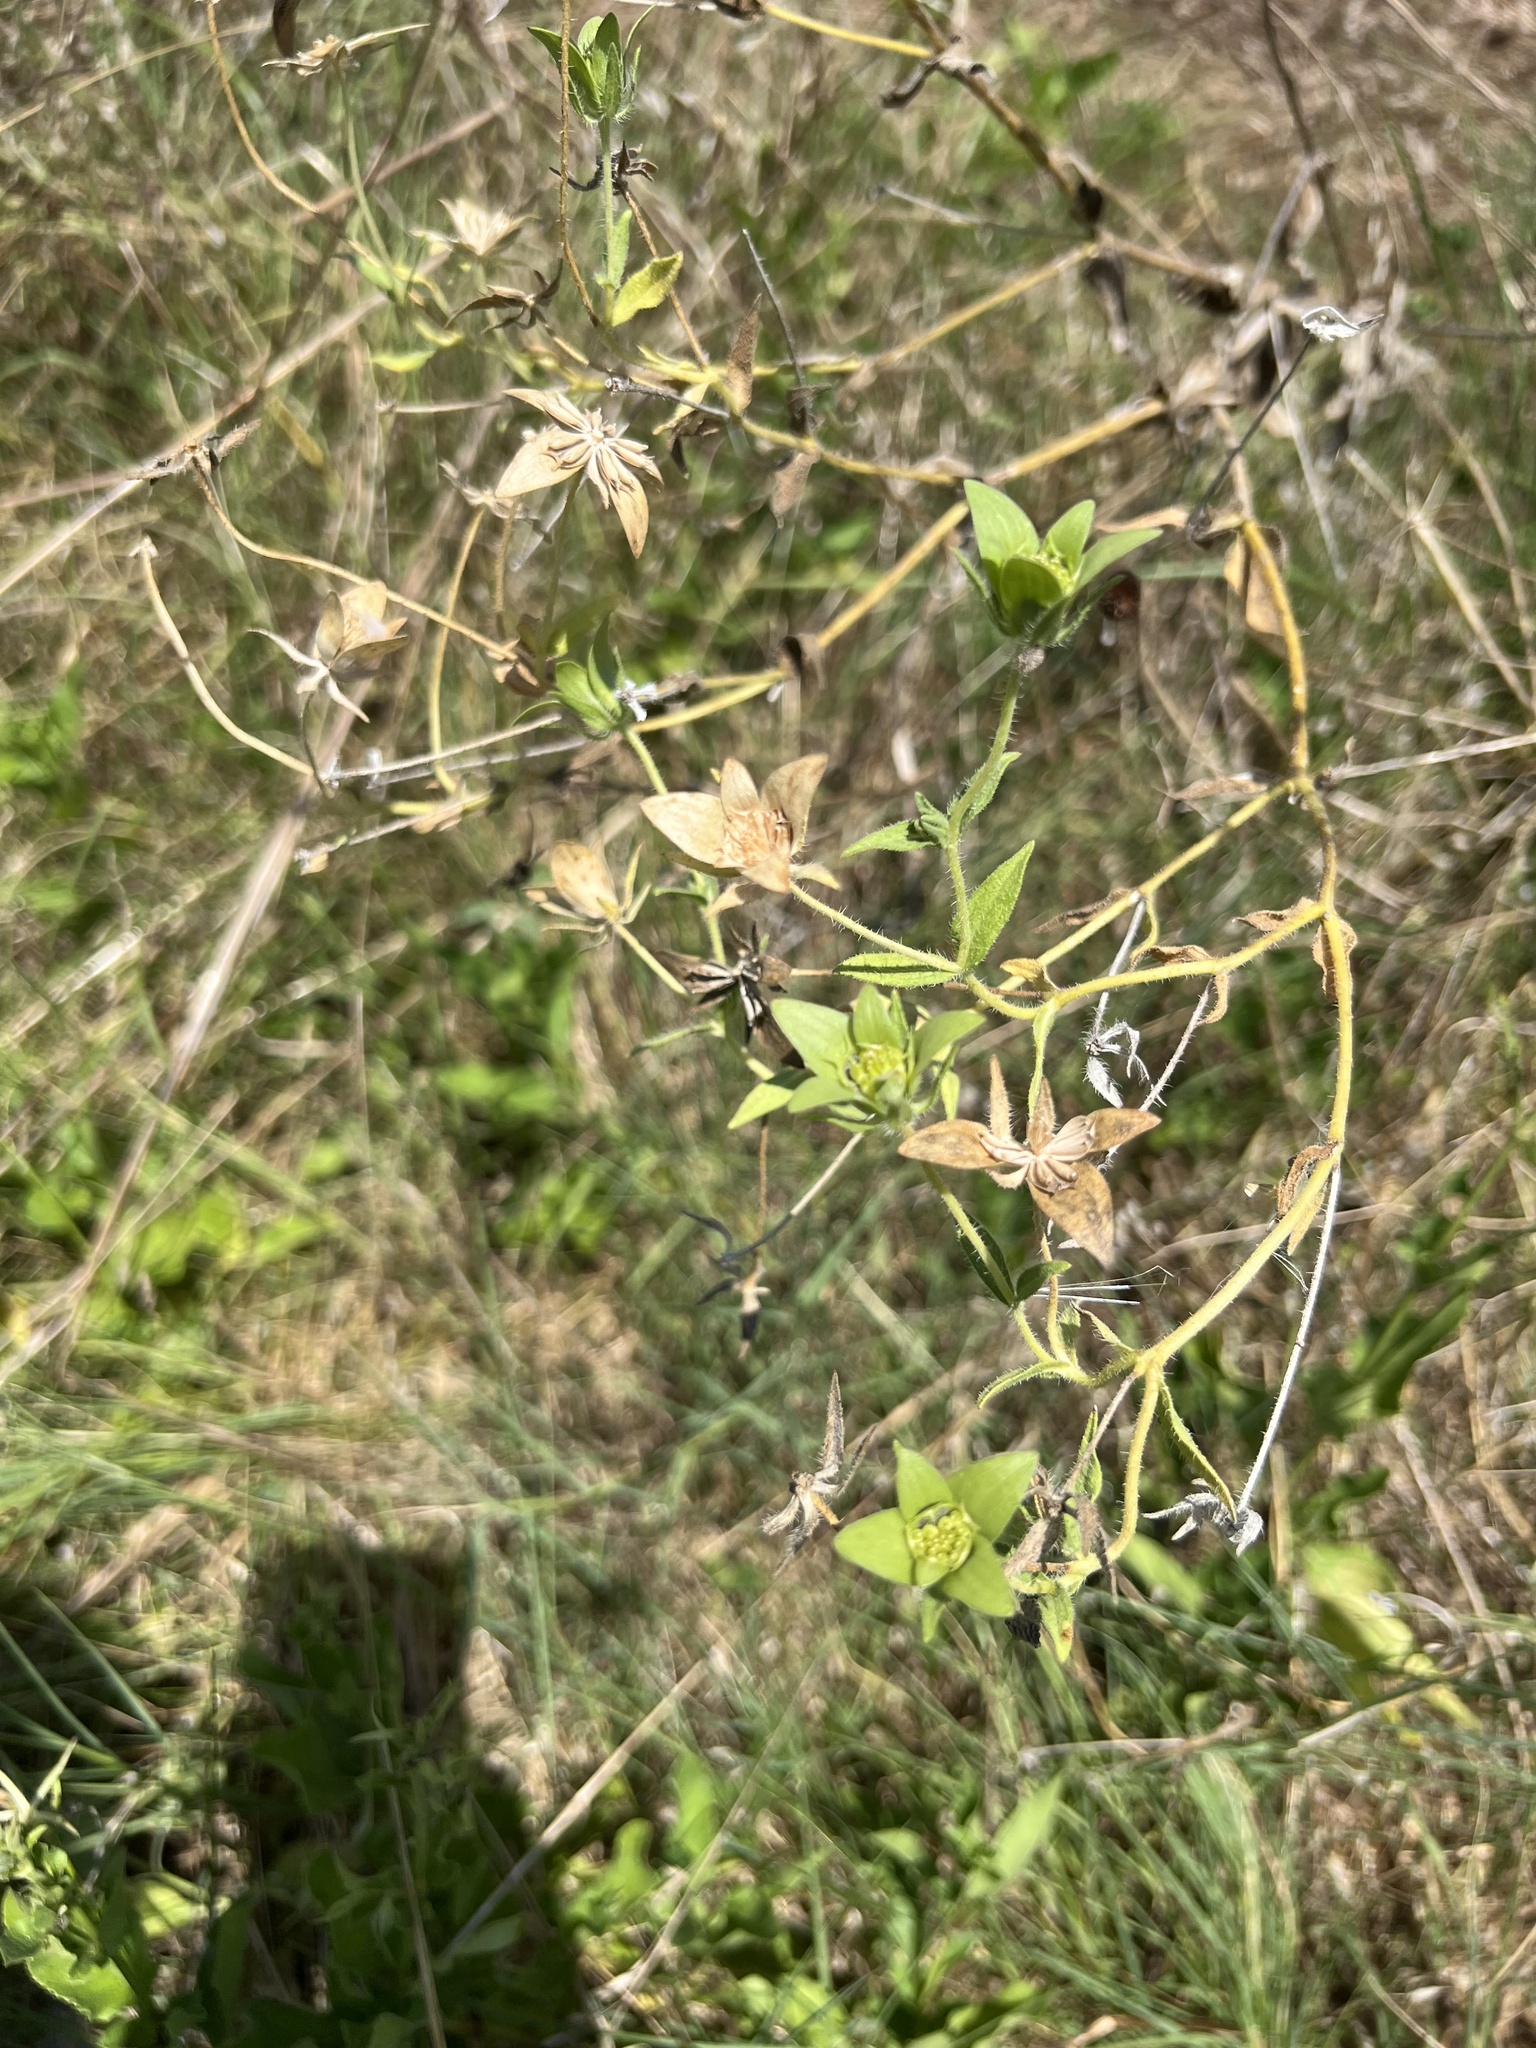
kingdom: Plantae
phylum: Tracheophyta
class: Magnoliopsida
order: Asterales
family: Asteraceae
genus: Lindheimera
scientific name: Lindheimera texana
